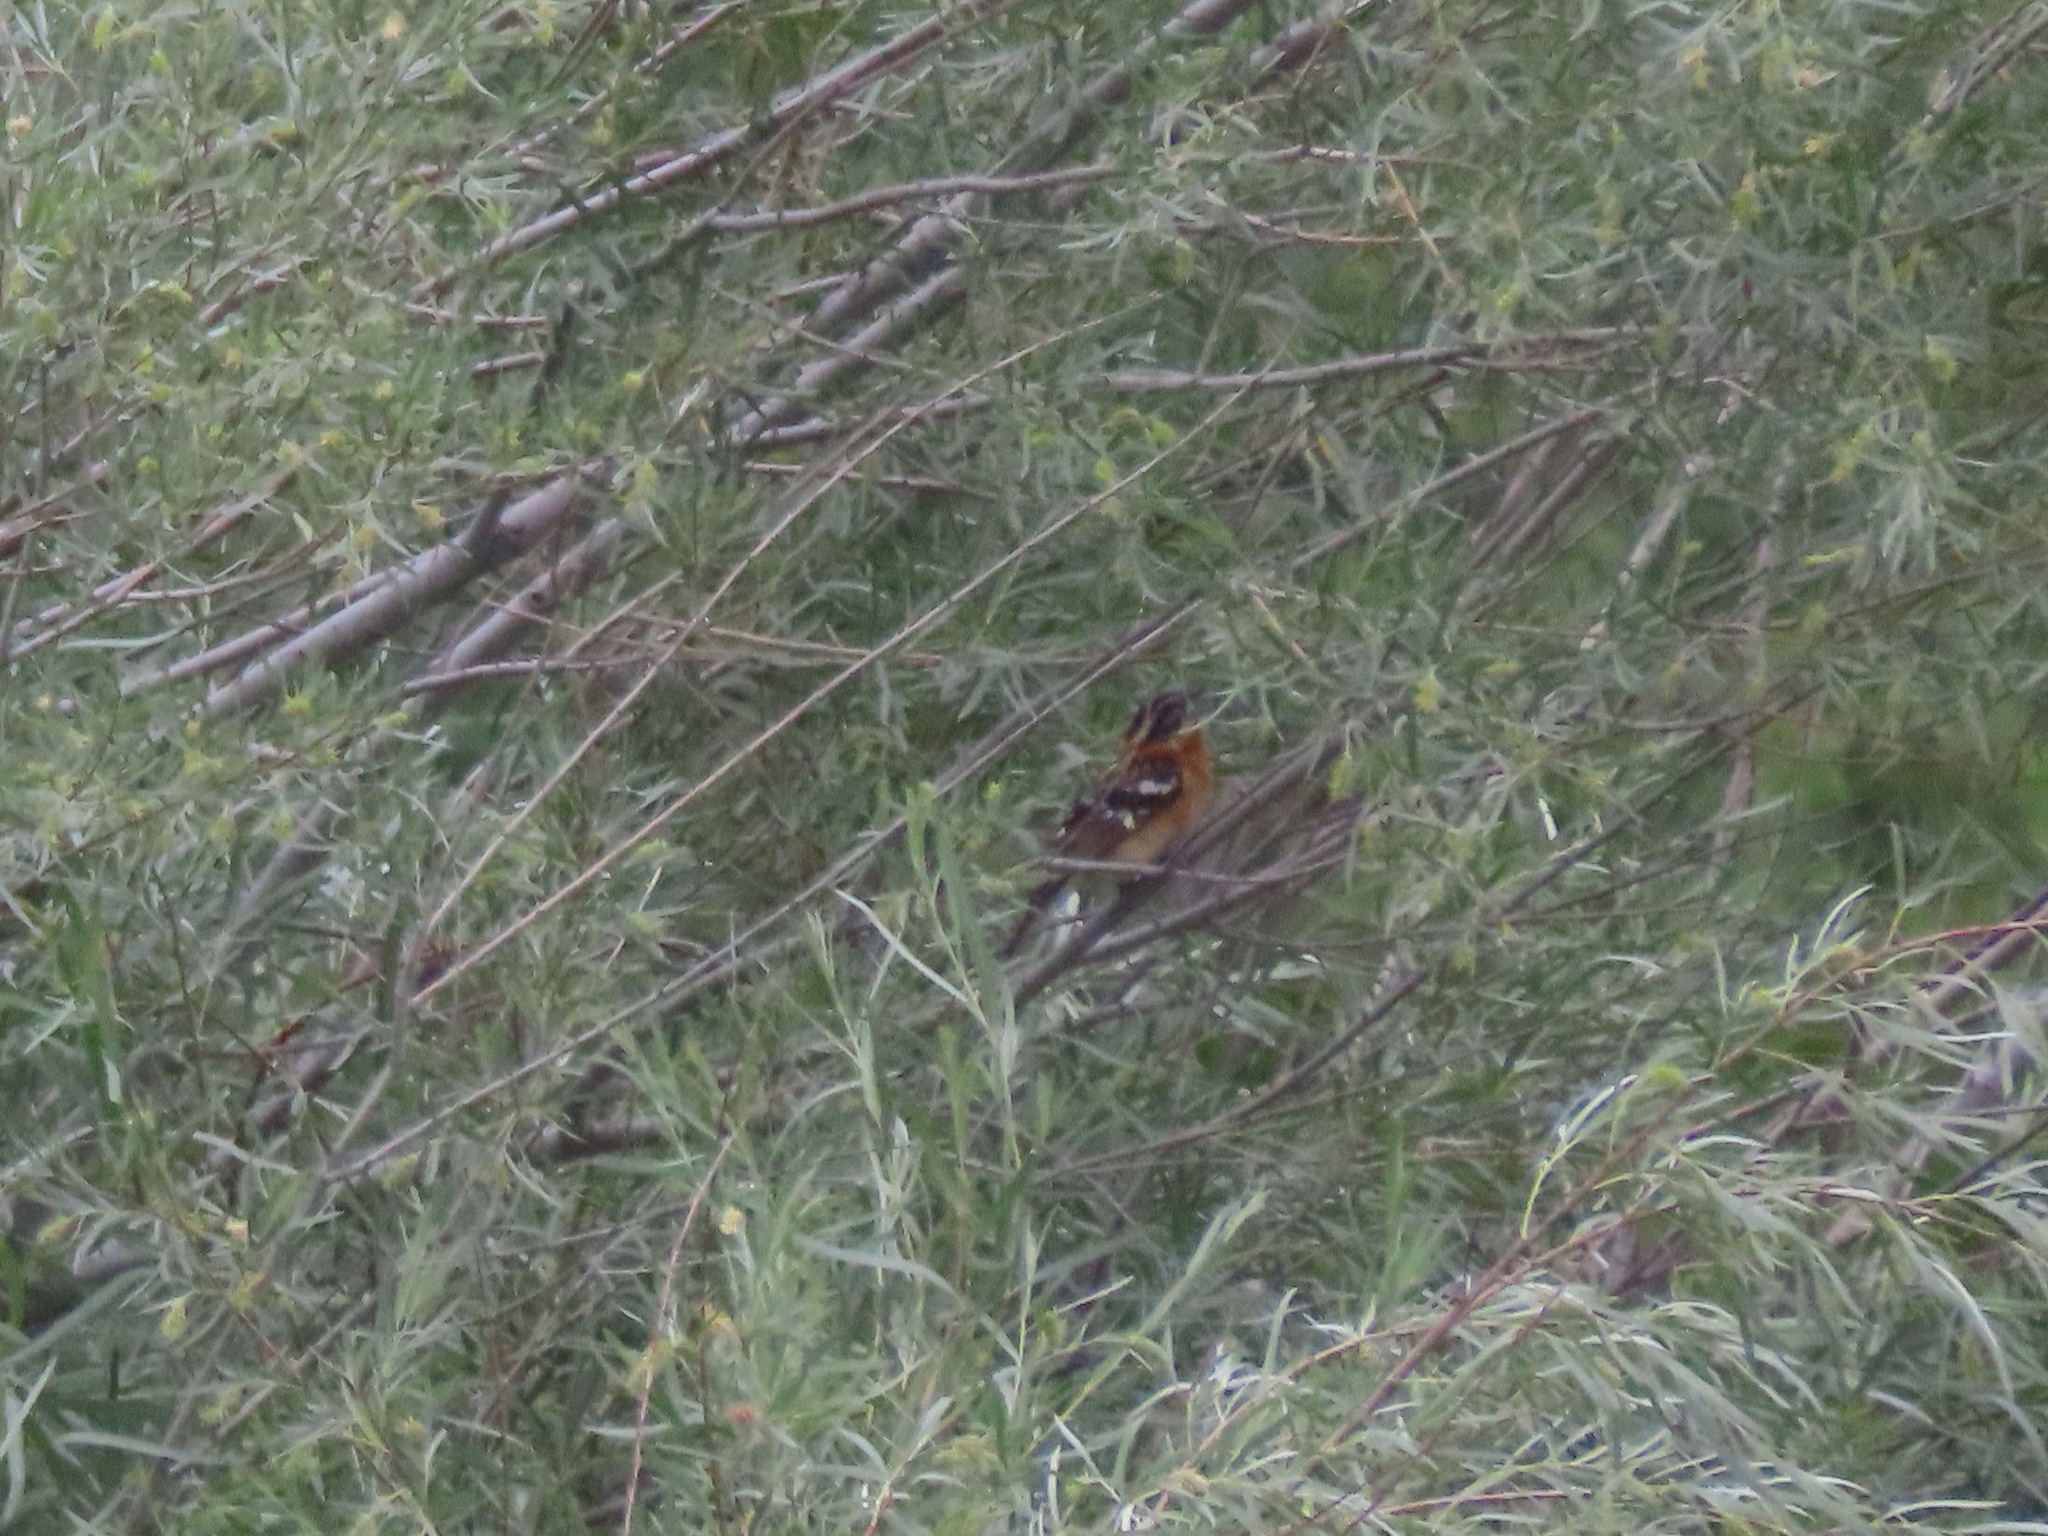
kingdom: Animalia
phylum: Chordata
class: Aves
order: Passeriformes
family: Cardinalidae
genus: Pheucticus
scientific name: Pheucticus melanocephalus
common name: Black-headed grosbeak
